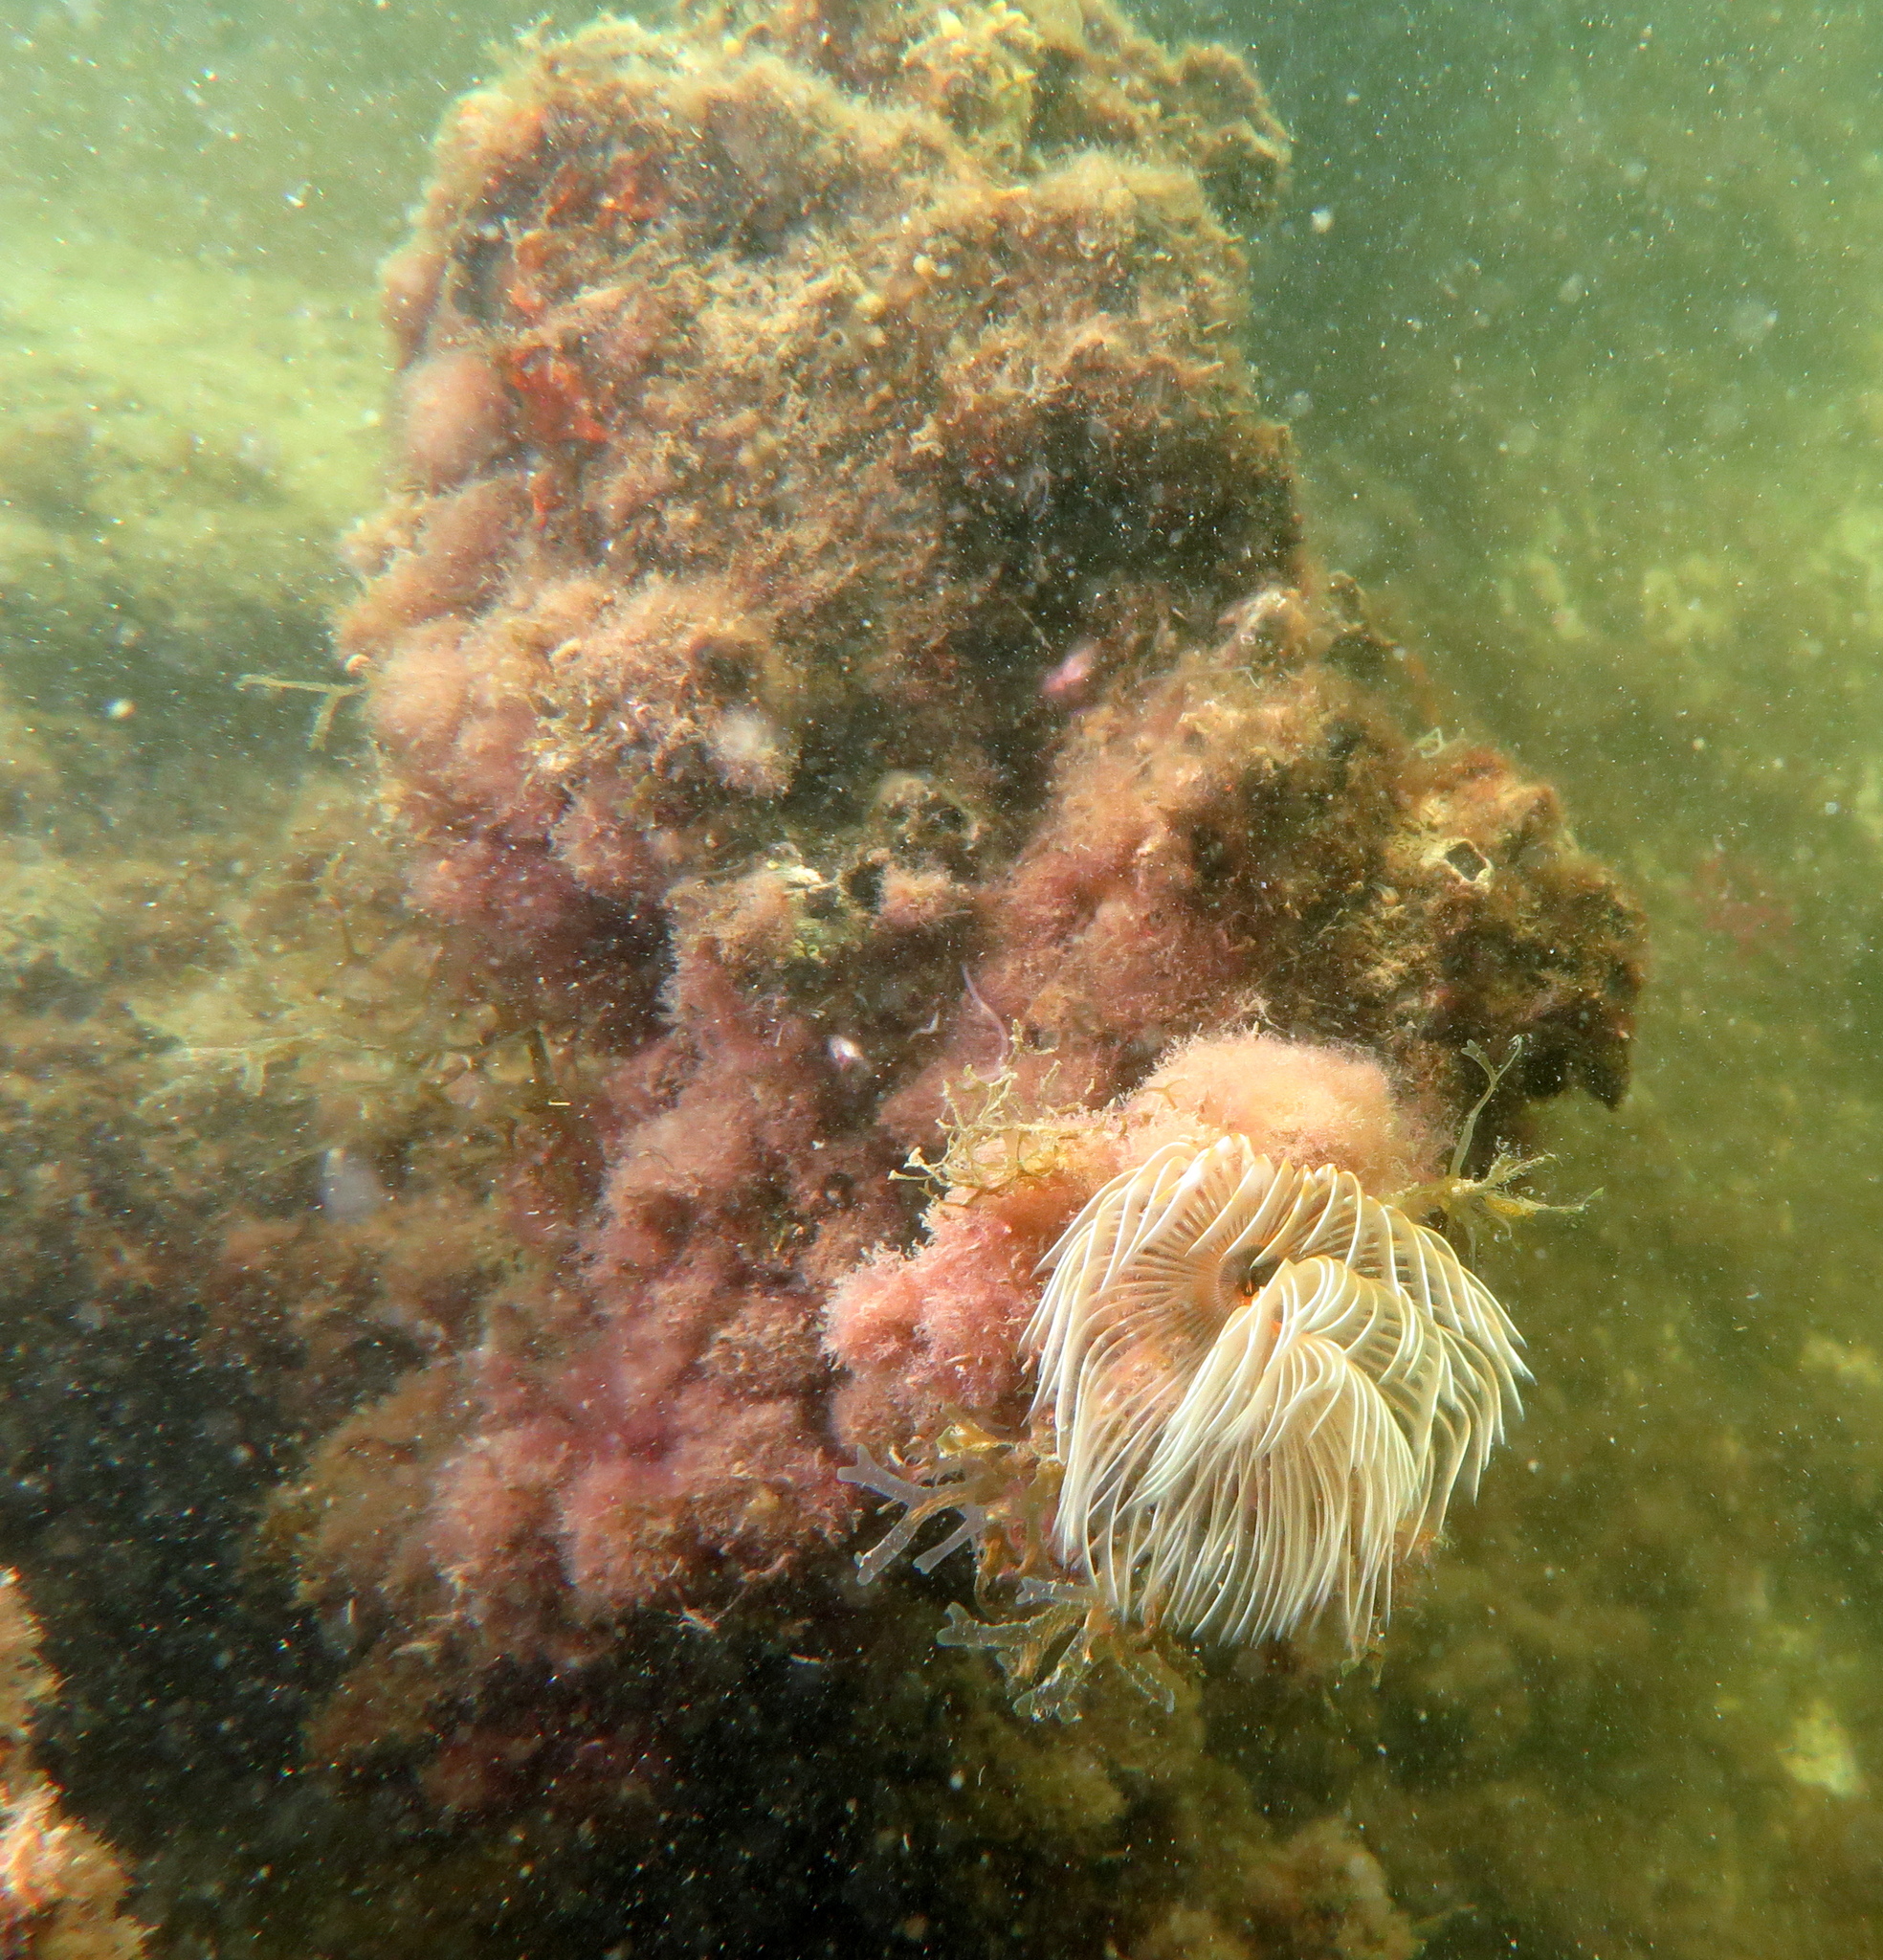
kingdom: Animalia
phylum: Annelida
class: Polychaeta
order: Sabellida
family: Sabellidae
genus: Sabella
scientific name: Sabella spallanzanii
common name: Feather duster worm
